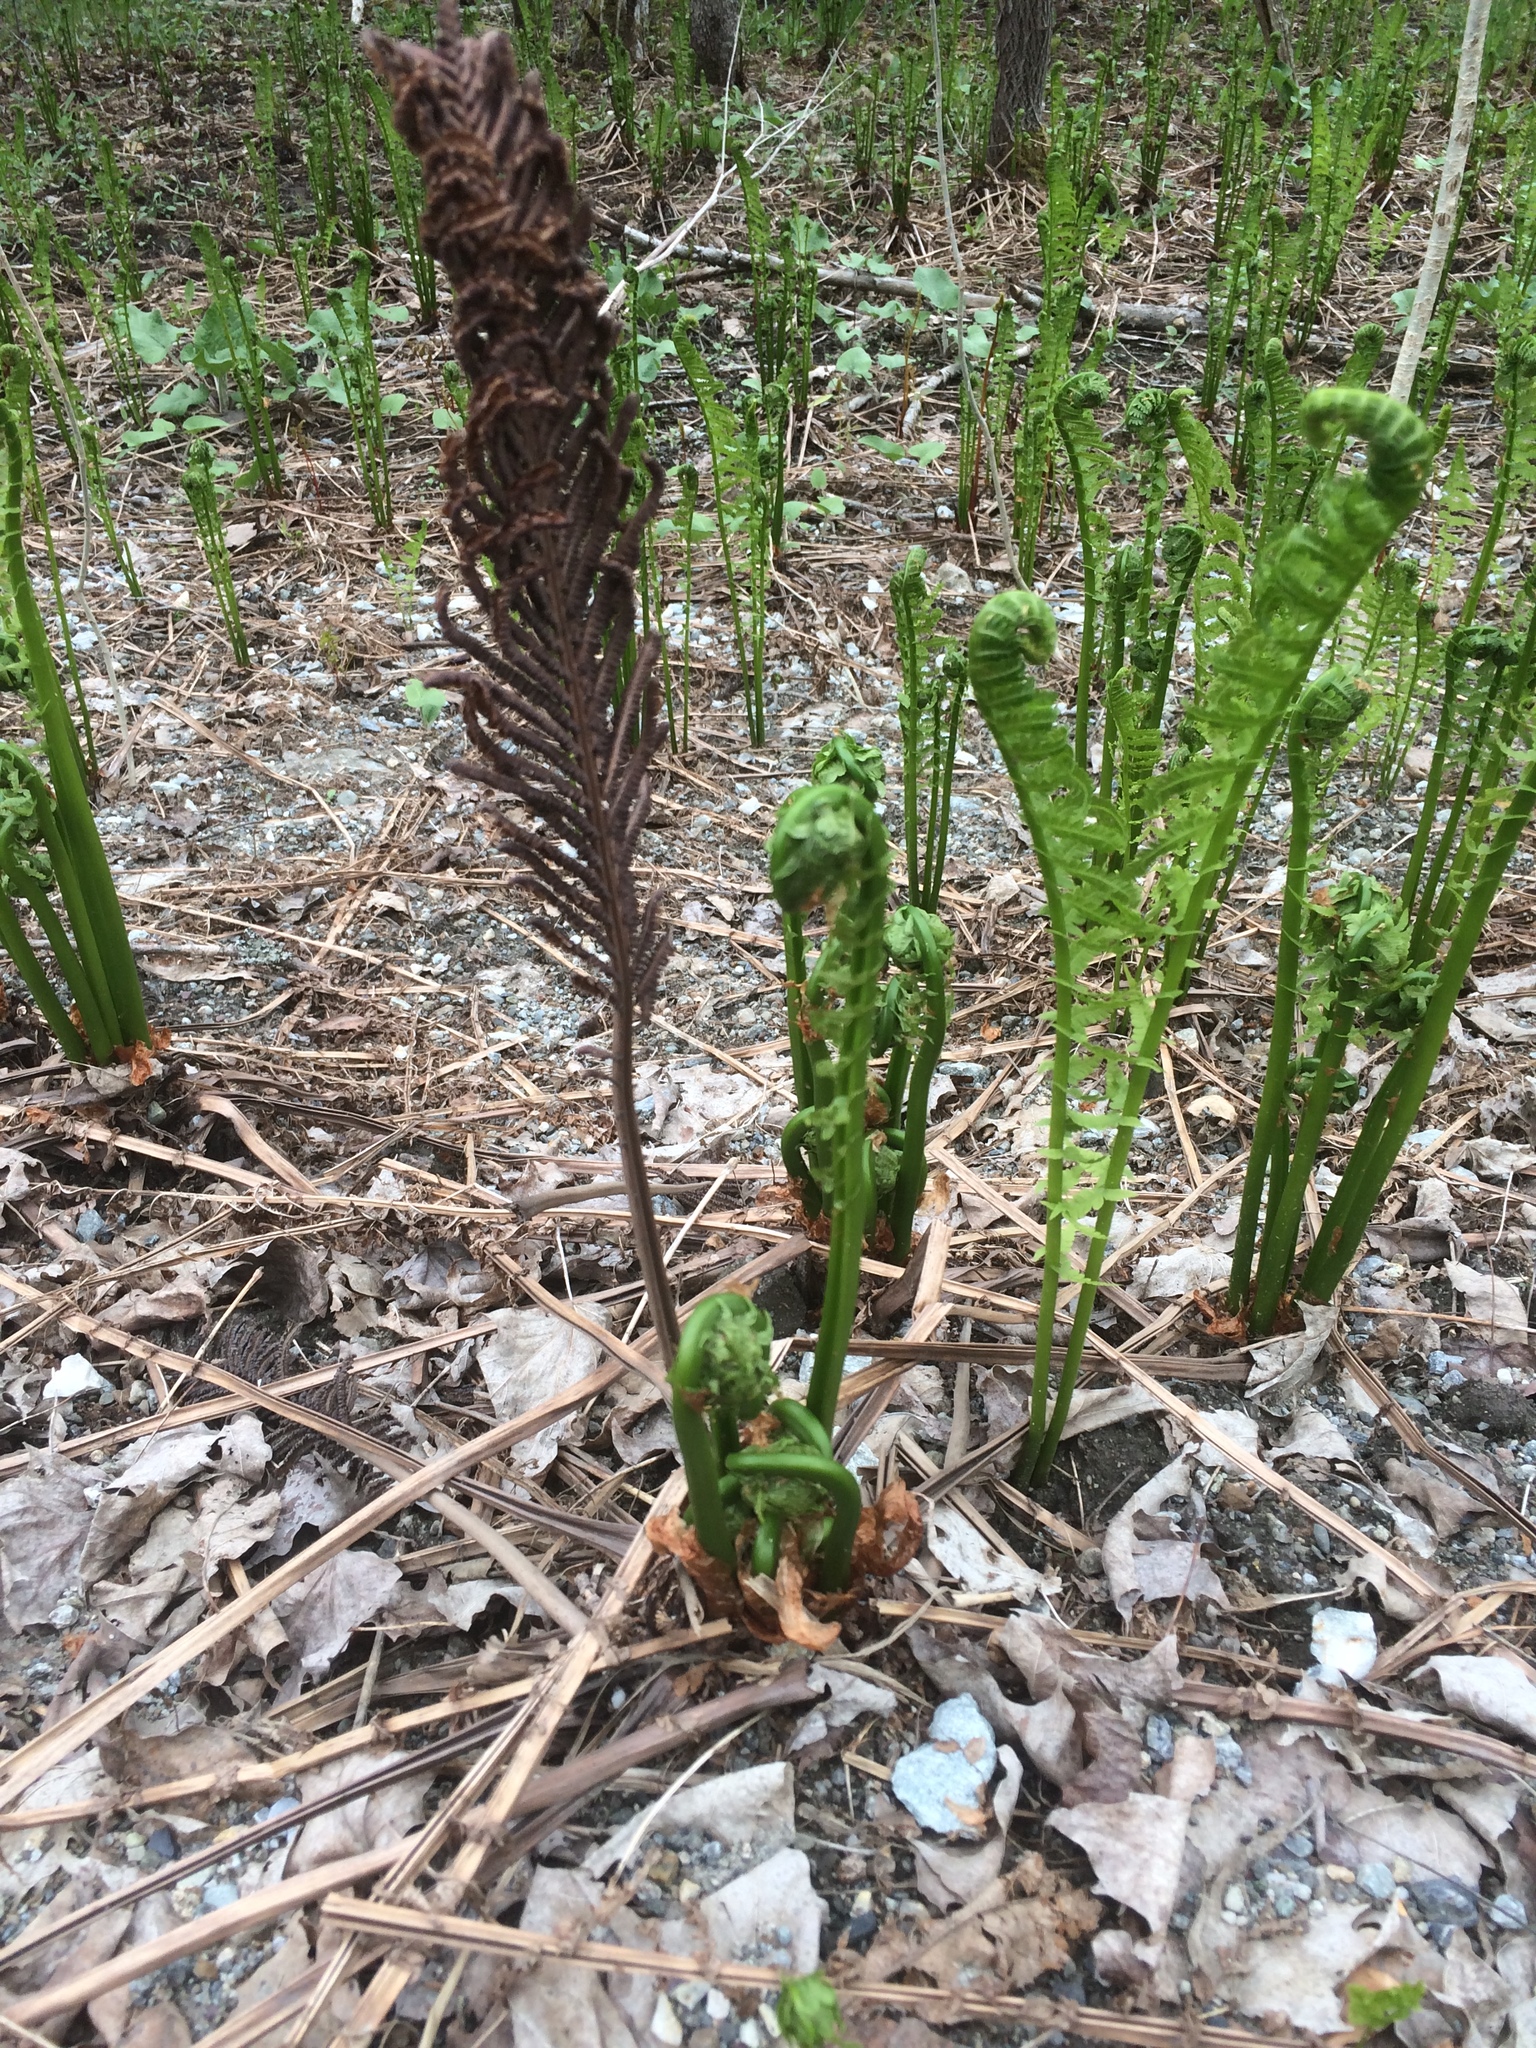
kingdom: Plantae
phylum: Tracheophyta
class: Polypodiopsida
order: Polypodiales
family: Onocleaceae
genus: Matteuccia
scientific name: Matteuccia struthiopteris
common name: Ostrich fern
